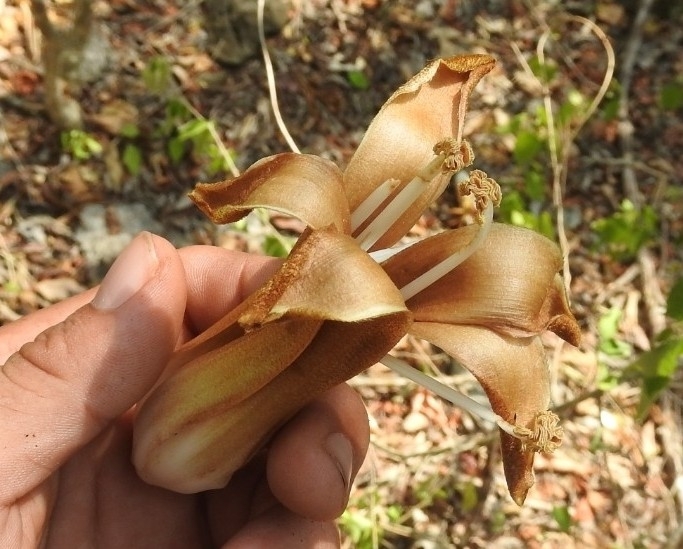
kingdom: Plantae
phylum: Tracheophyta
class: Magnoliopsida
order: Malvales
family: Malvaceae
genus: Ceiba
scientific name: Ceiba aesculifolia
